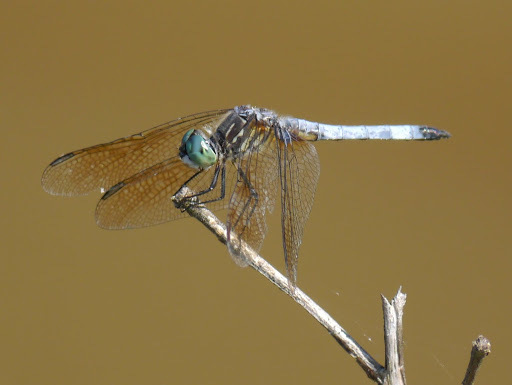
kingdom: Animalia
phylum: Arthropoda
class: Insecta
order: Odonata
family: Libellulidae
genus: Pachydiplax
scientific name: Pachydiplax longipennis
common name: Blue dasher
